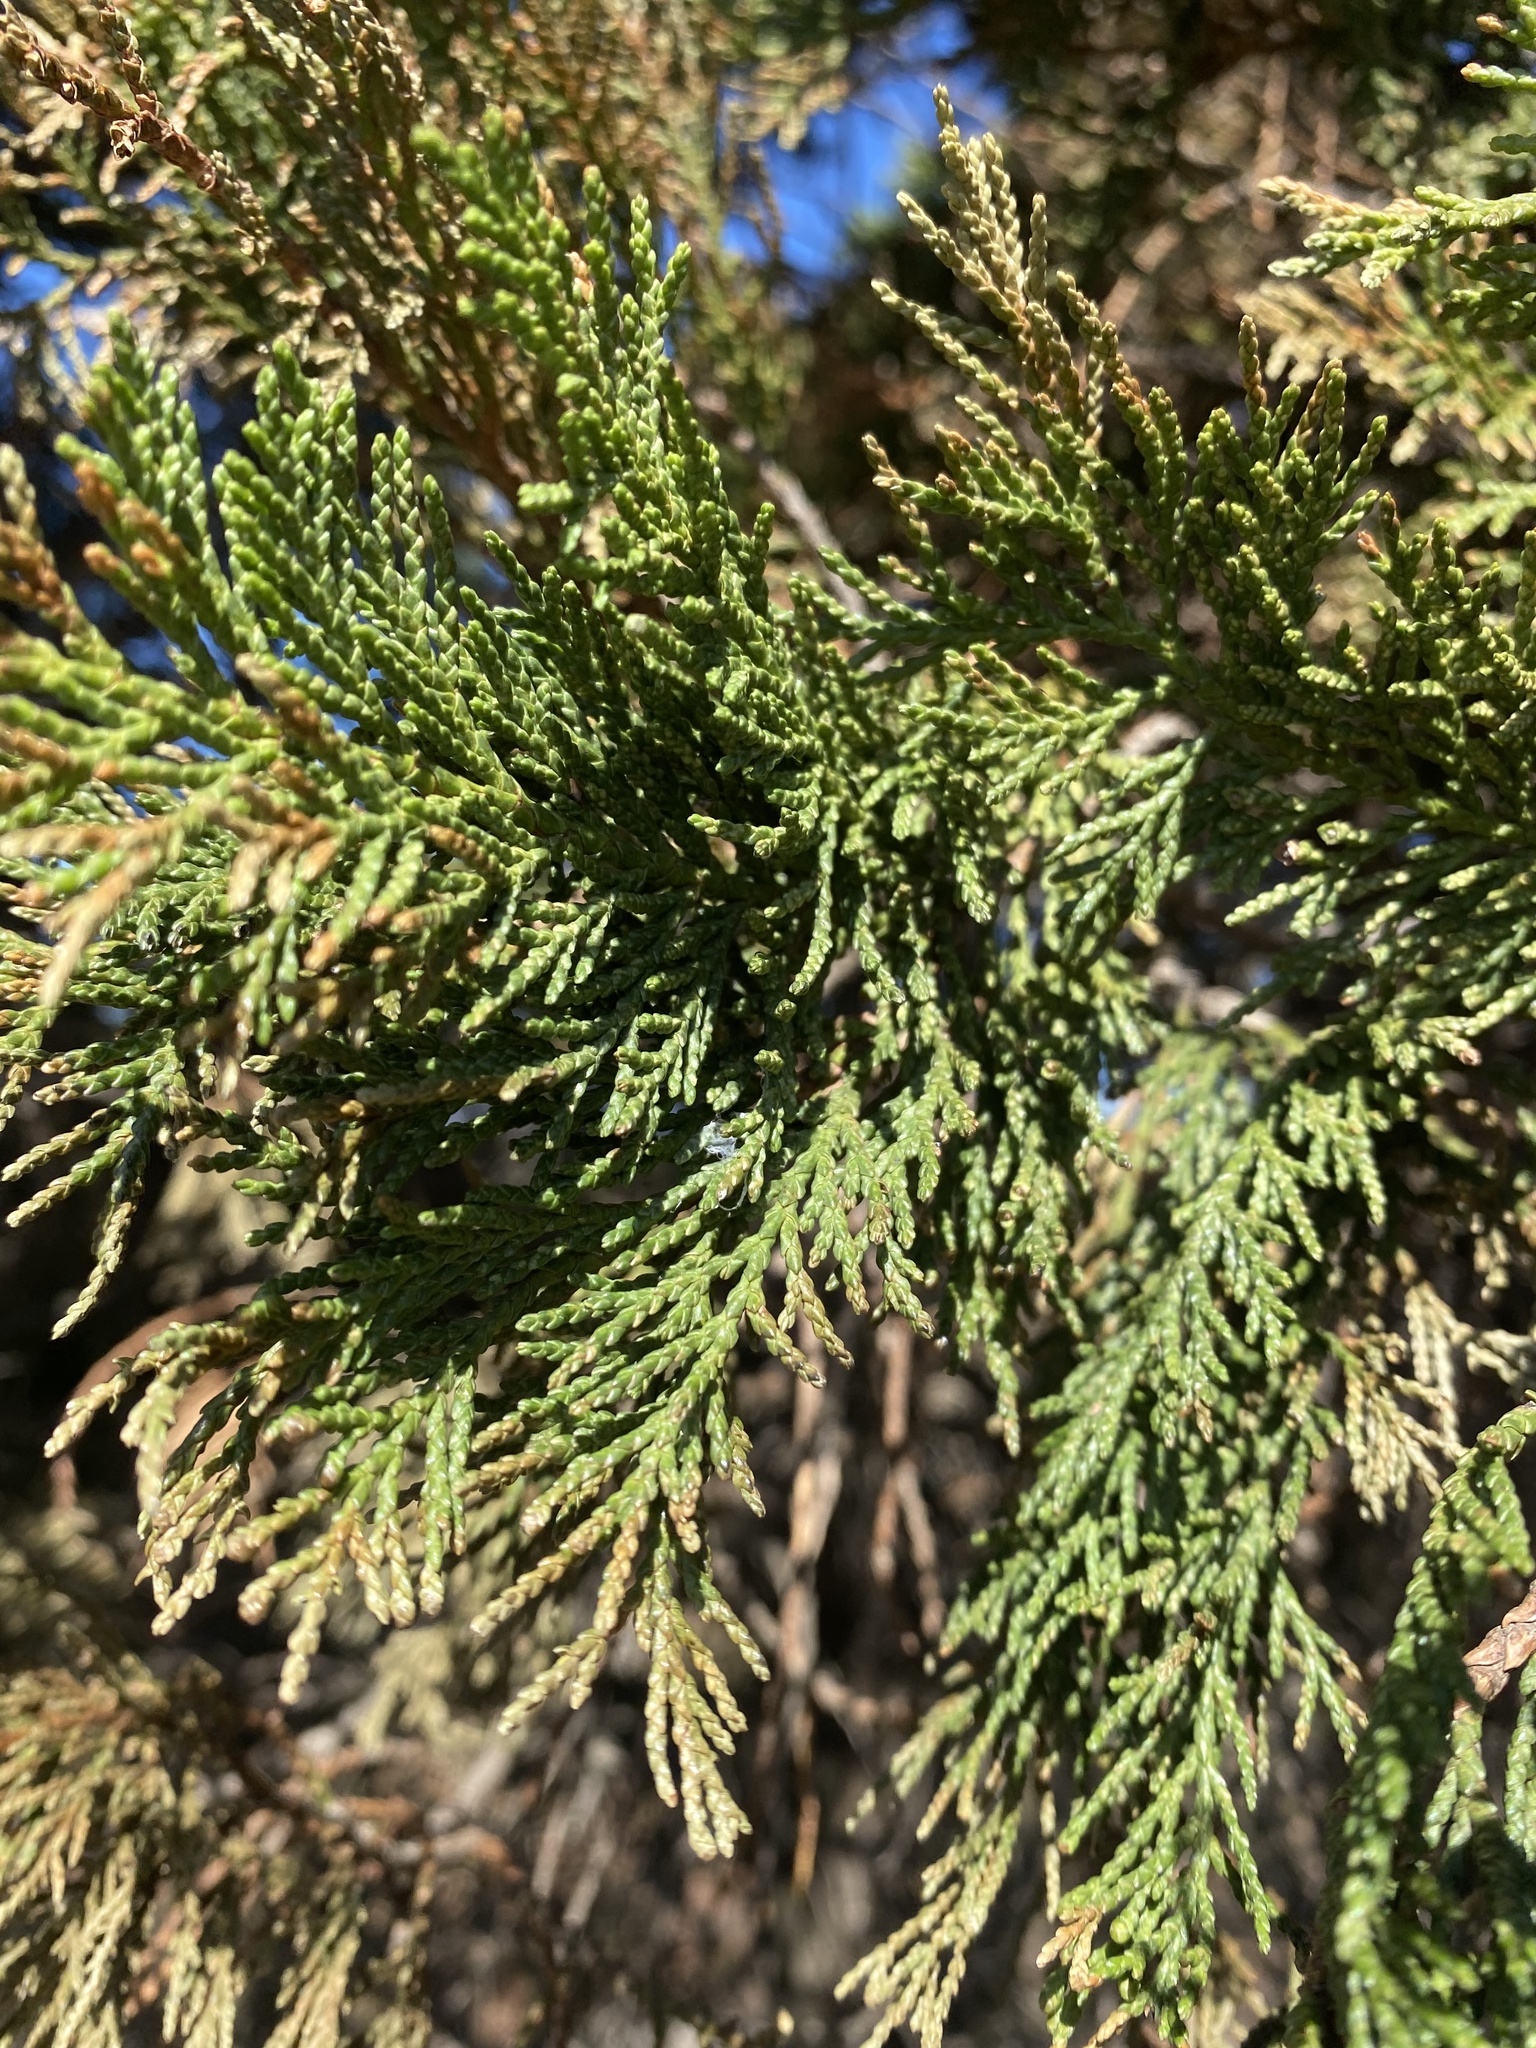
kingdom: Plantae
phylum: Tracheophyta
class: Pinopsida
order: Pinales
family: Cupressaceae
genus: Juniperus
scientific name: Juniperus excelsa
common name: Crimean juniper
